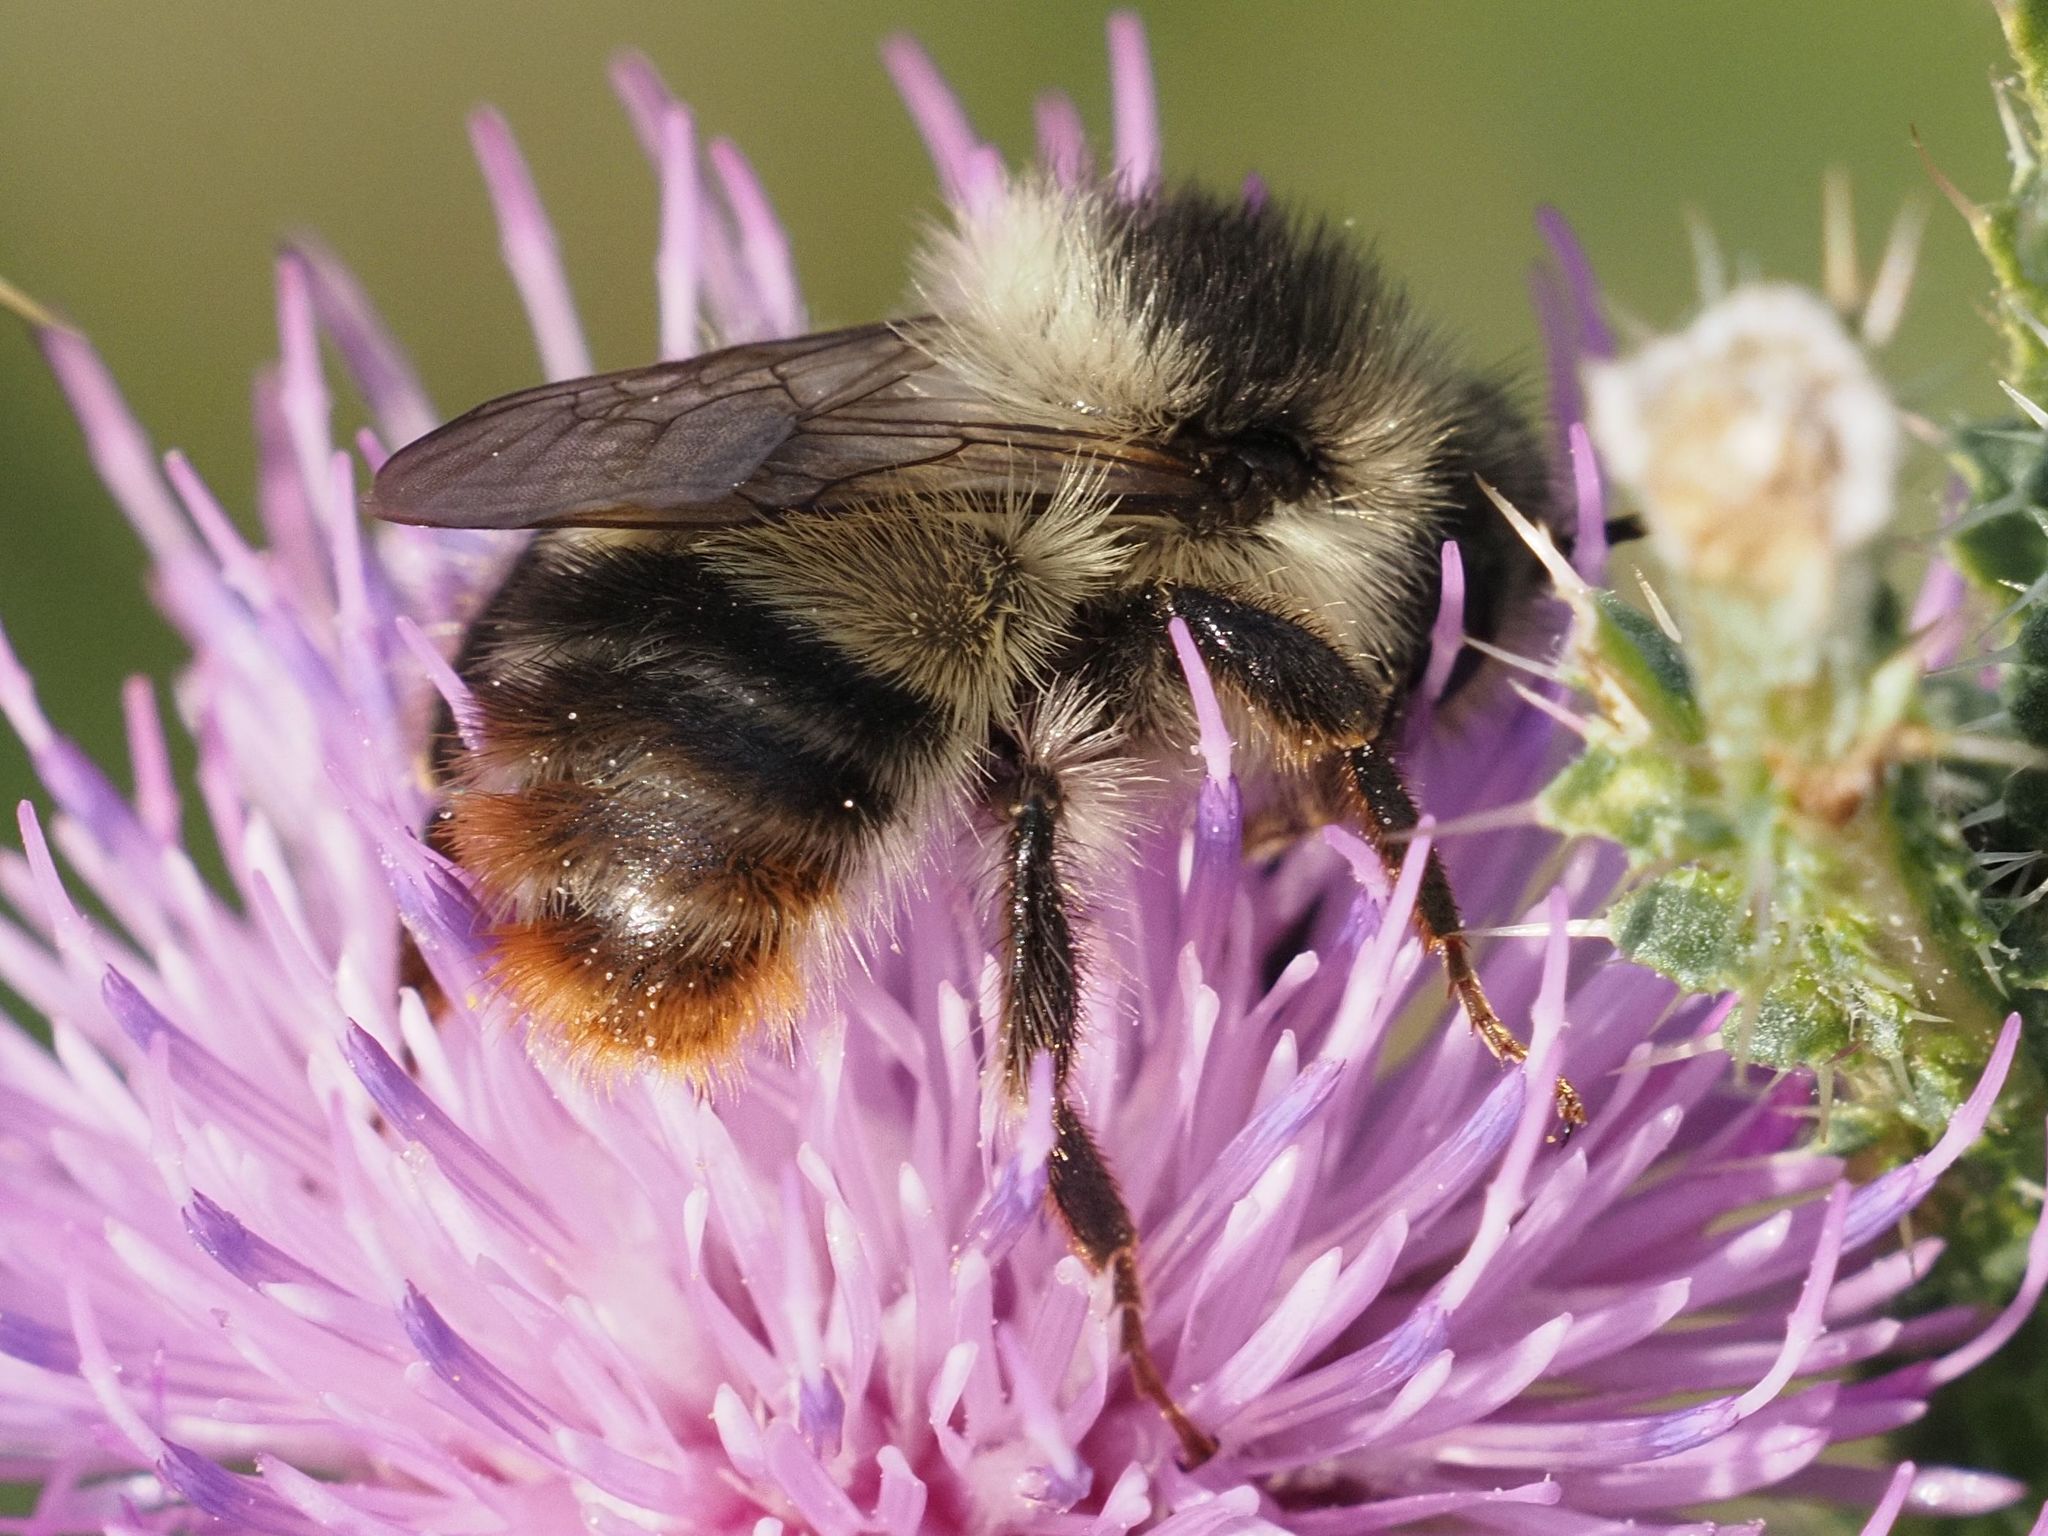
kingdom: Animalia
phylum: Arthropoda
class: Insecta
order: Hymenoptera
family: Apidae
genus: Bombus
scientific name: Bombus sylvarum
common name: Shrill carder bee
